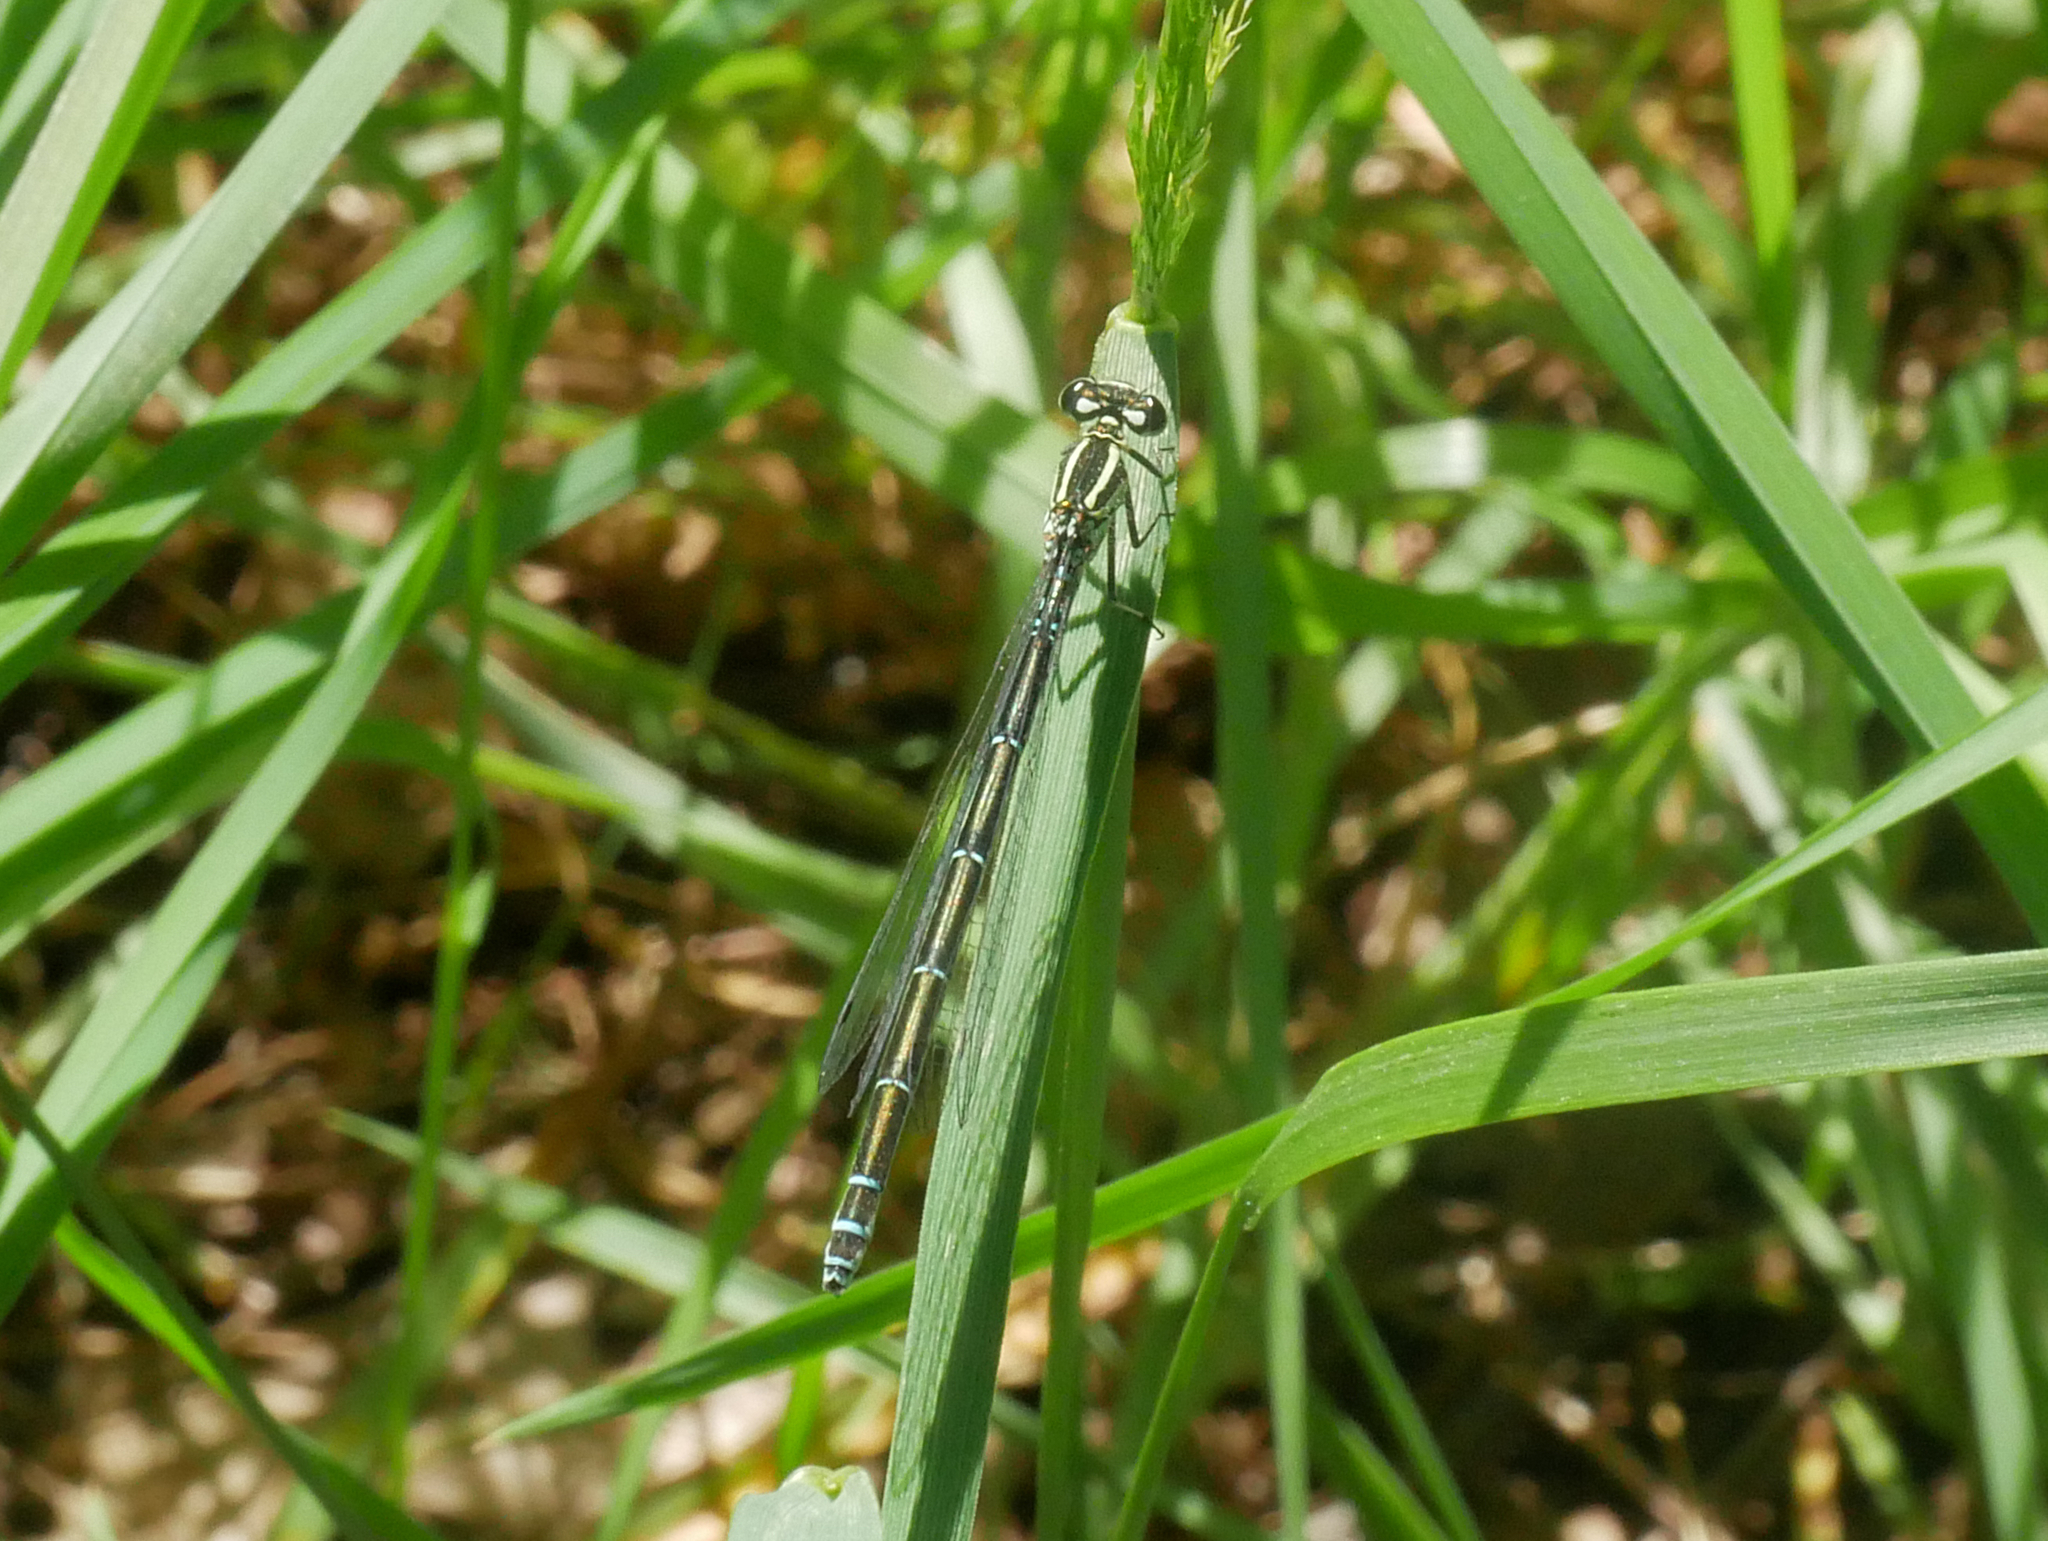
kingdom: Animalia
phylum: Arthropoda
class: Insecta
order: Odonata
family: Coenagrionidae
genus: Coenagrion
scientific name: Coenagrion puella
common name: Azure damselfly
